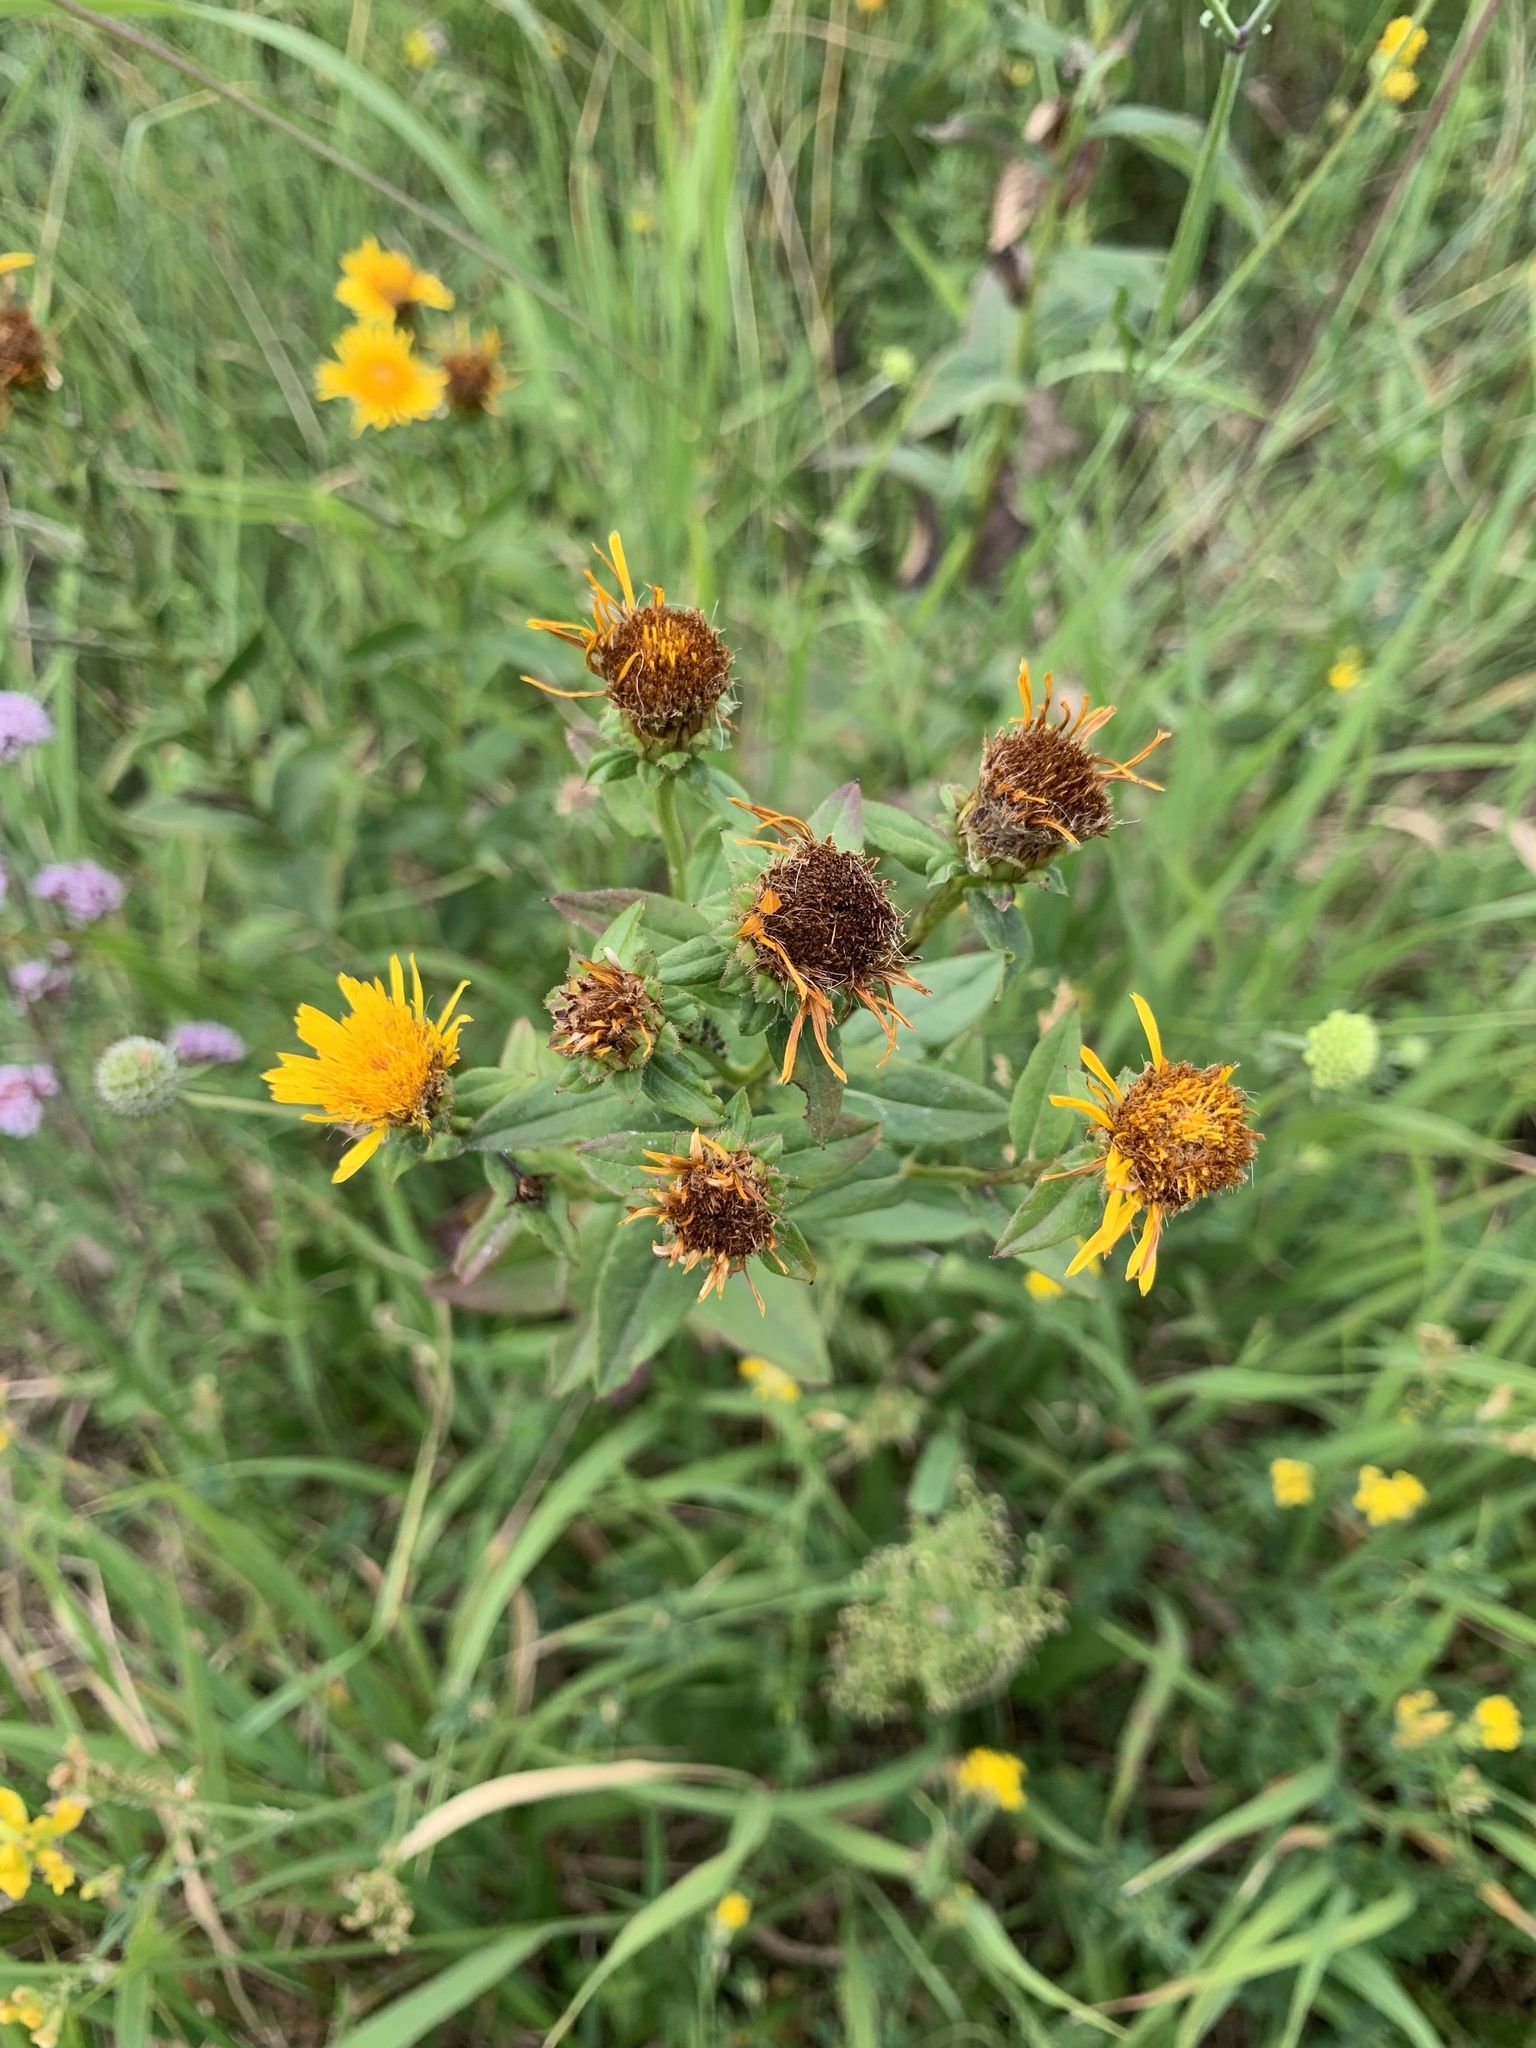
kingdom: Plantae
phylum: Tracheophyta
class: Magnoliopsida
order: Asterales
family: Asteraceae
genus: Pentanema
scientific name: Pentanema asperum
